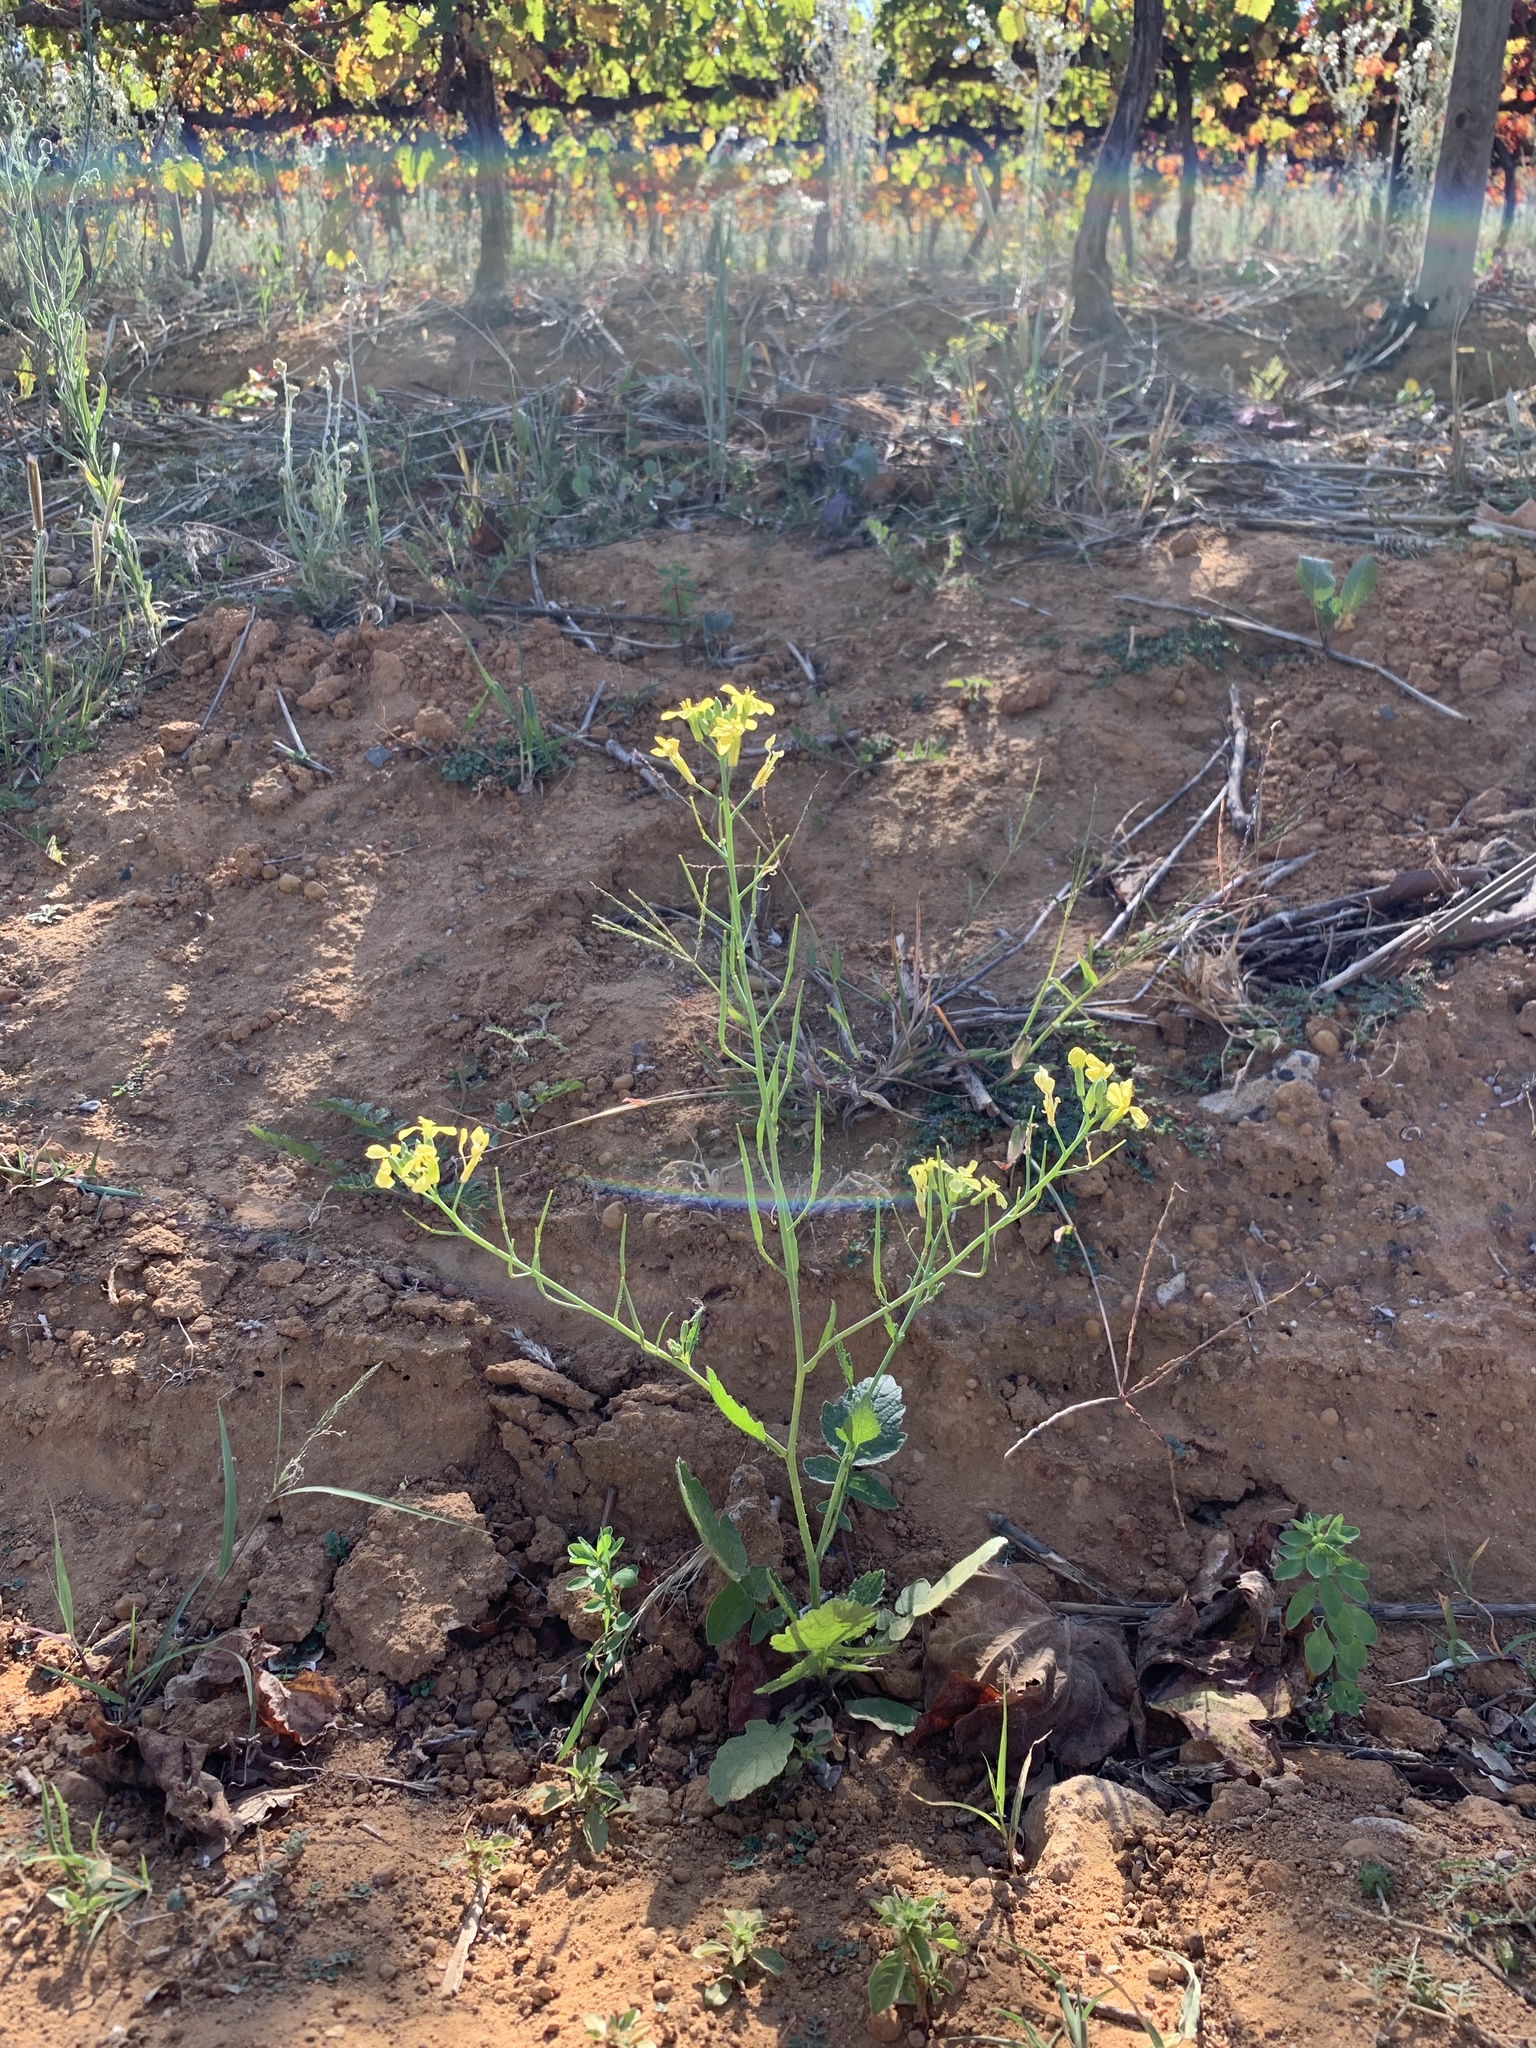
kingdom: Plantae
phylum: Tracheophyta
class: Magnoliopsida
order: Brassicales
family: Brassicaceae
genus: Raphanus
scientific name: Raphanus raphanistrum
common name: Wild radish
